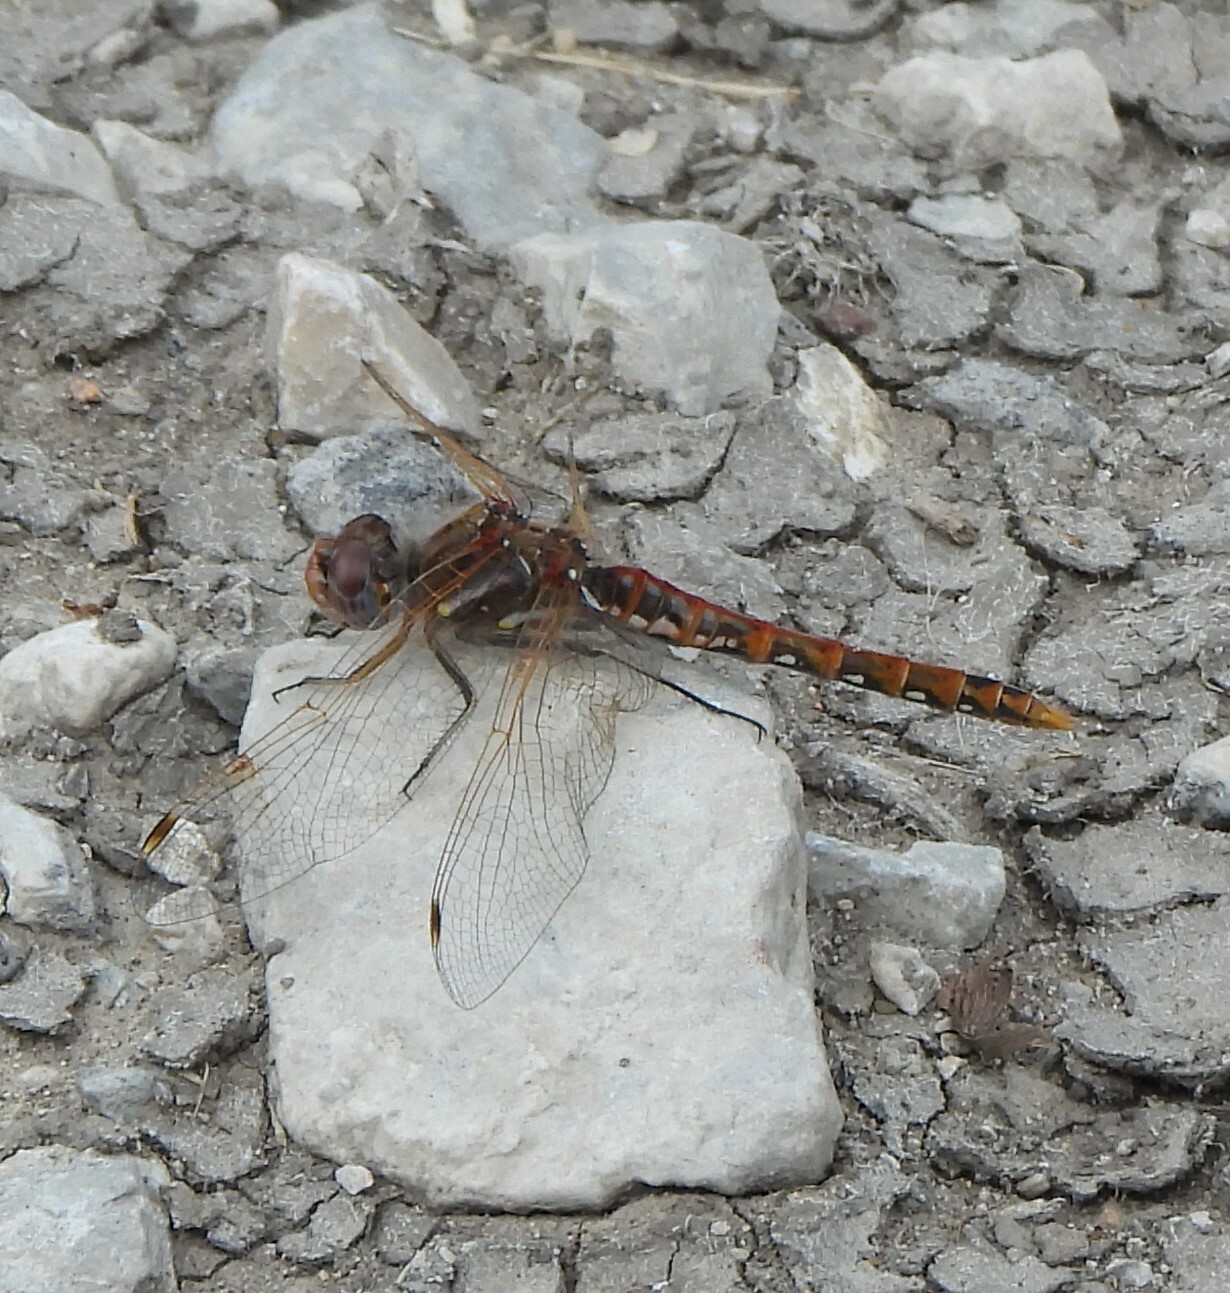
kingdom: Animalia
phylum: Arthropoda
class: Insecta
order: Odonata
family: Libellulidae
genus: Sympetrum
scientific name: Sympetrum corruptum
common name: Variegated meadowhawk
